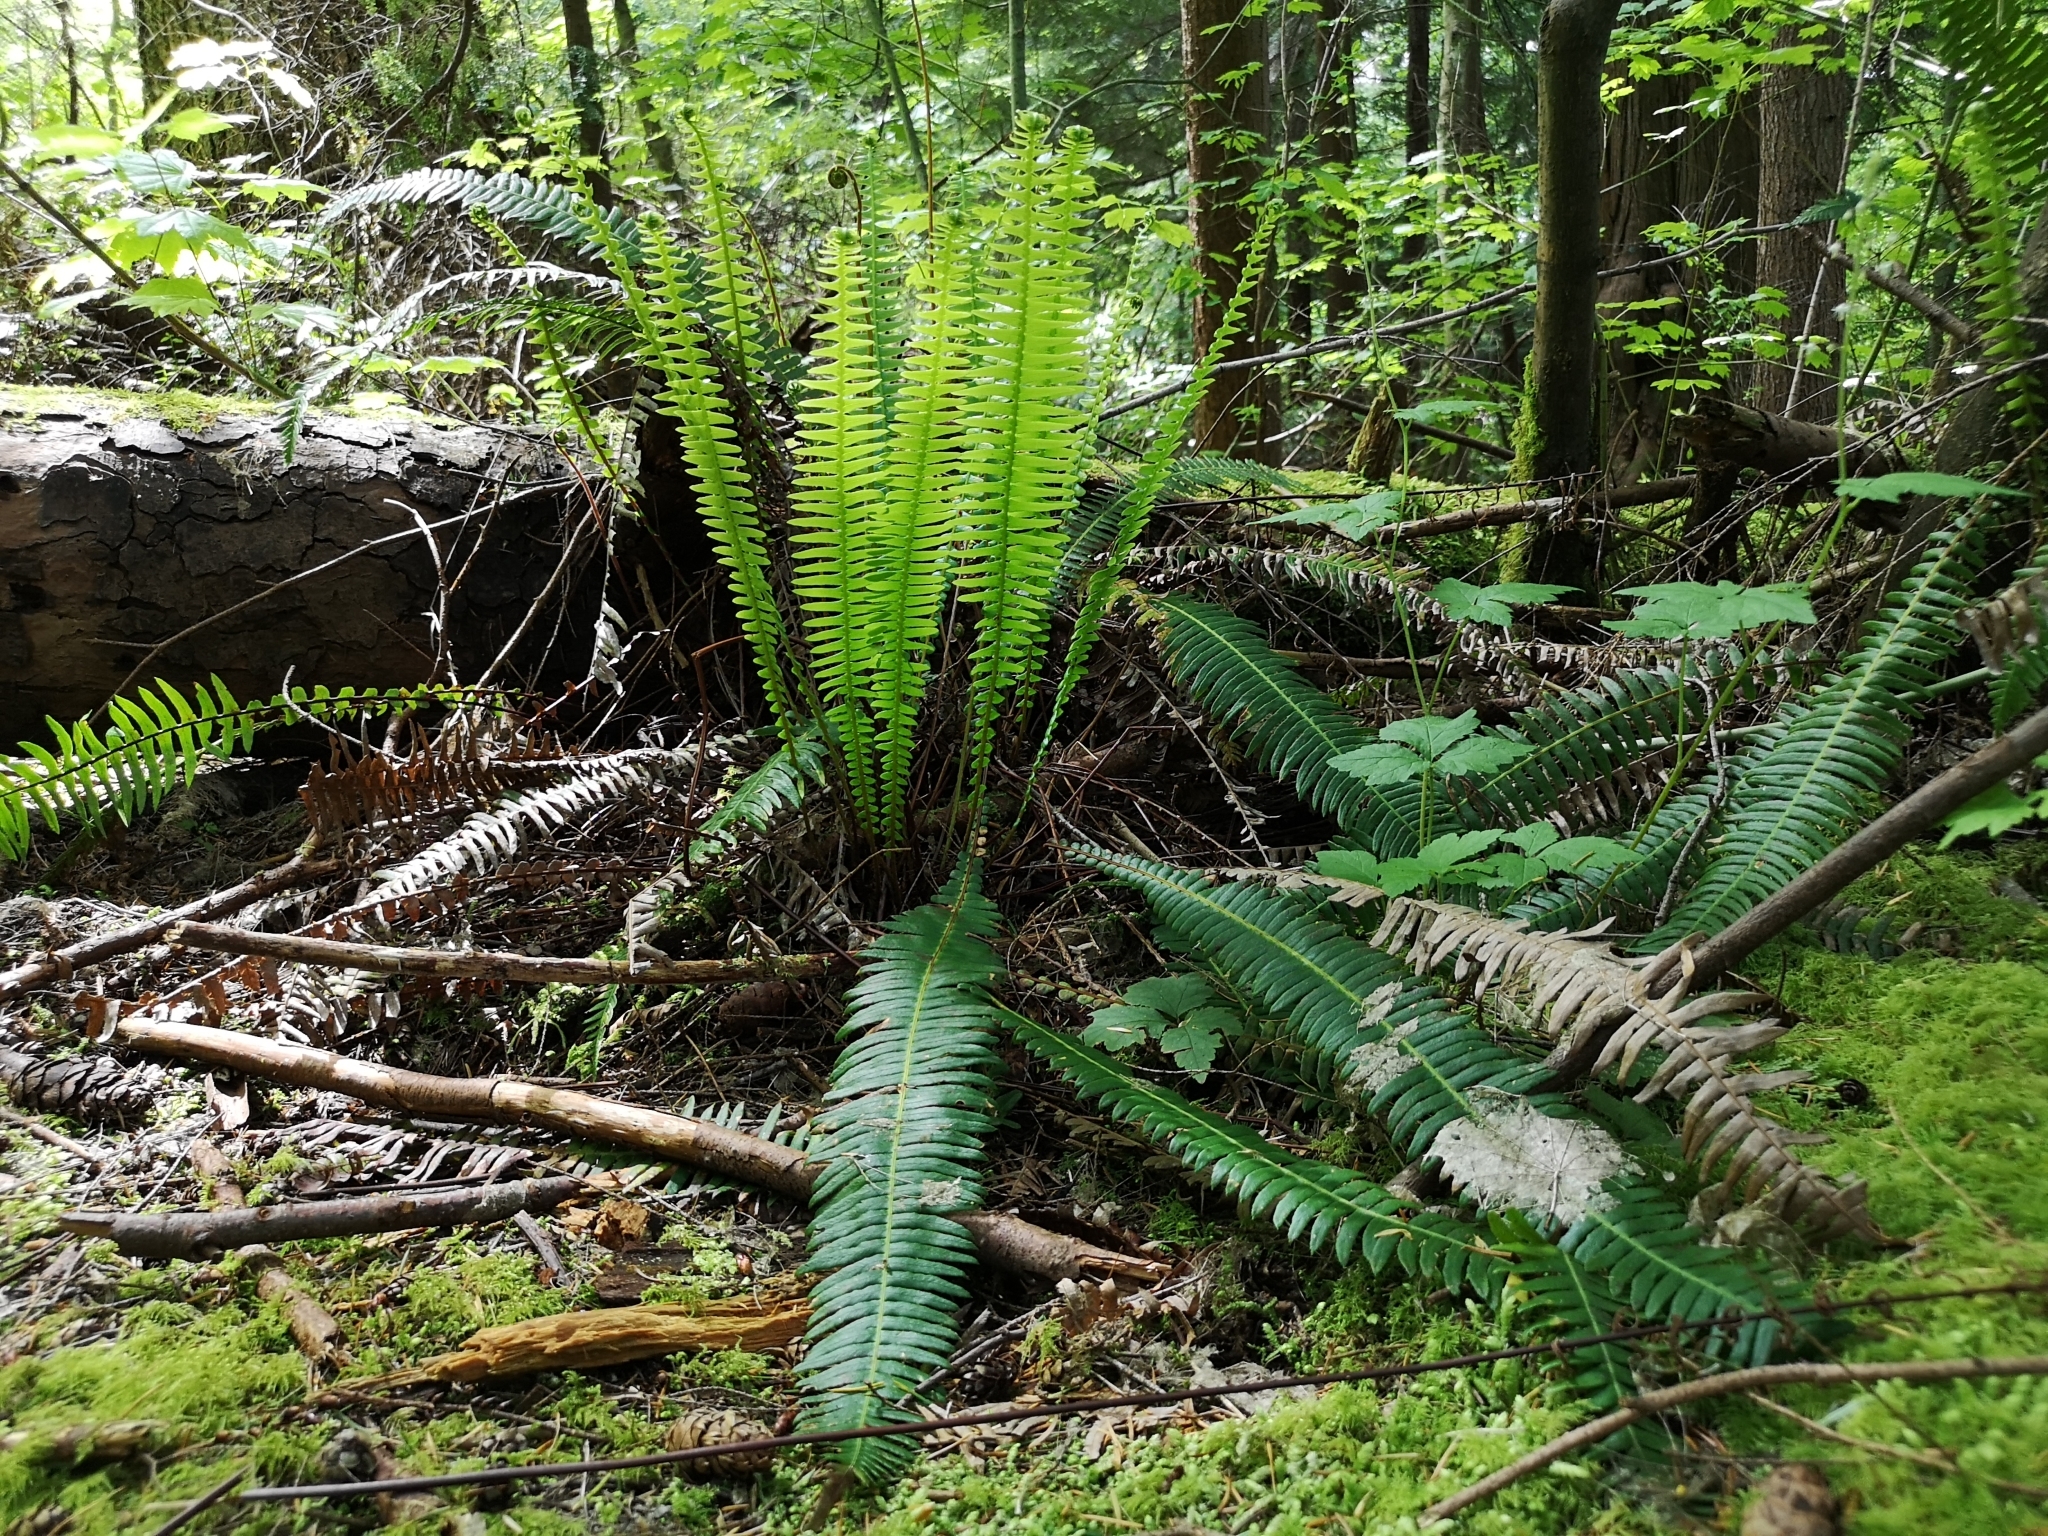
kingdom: Plantae
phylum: Tracheophyta
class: Polypodiopsida
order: Polypodiales
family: Blechnaceae
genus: Struthiopteris
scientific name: Struthiopteris spicant
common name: Deer fern
